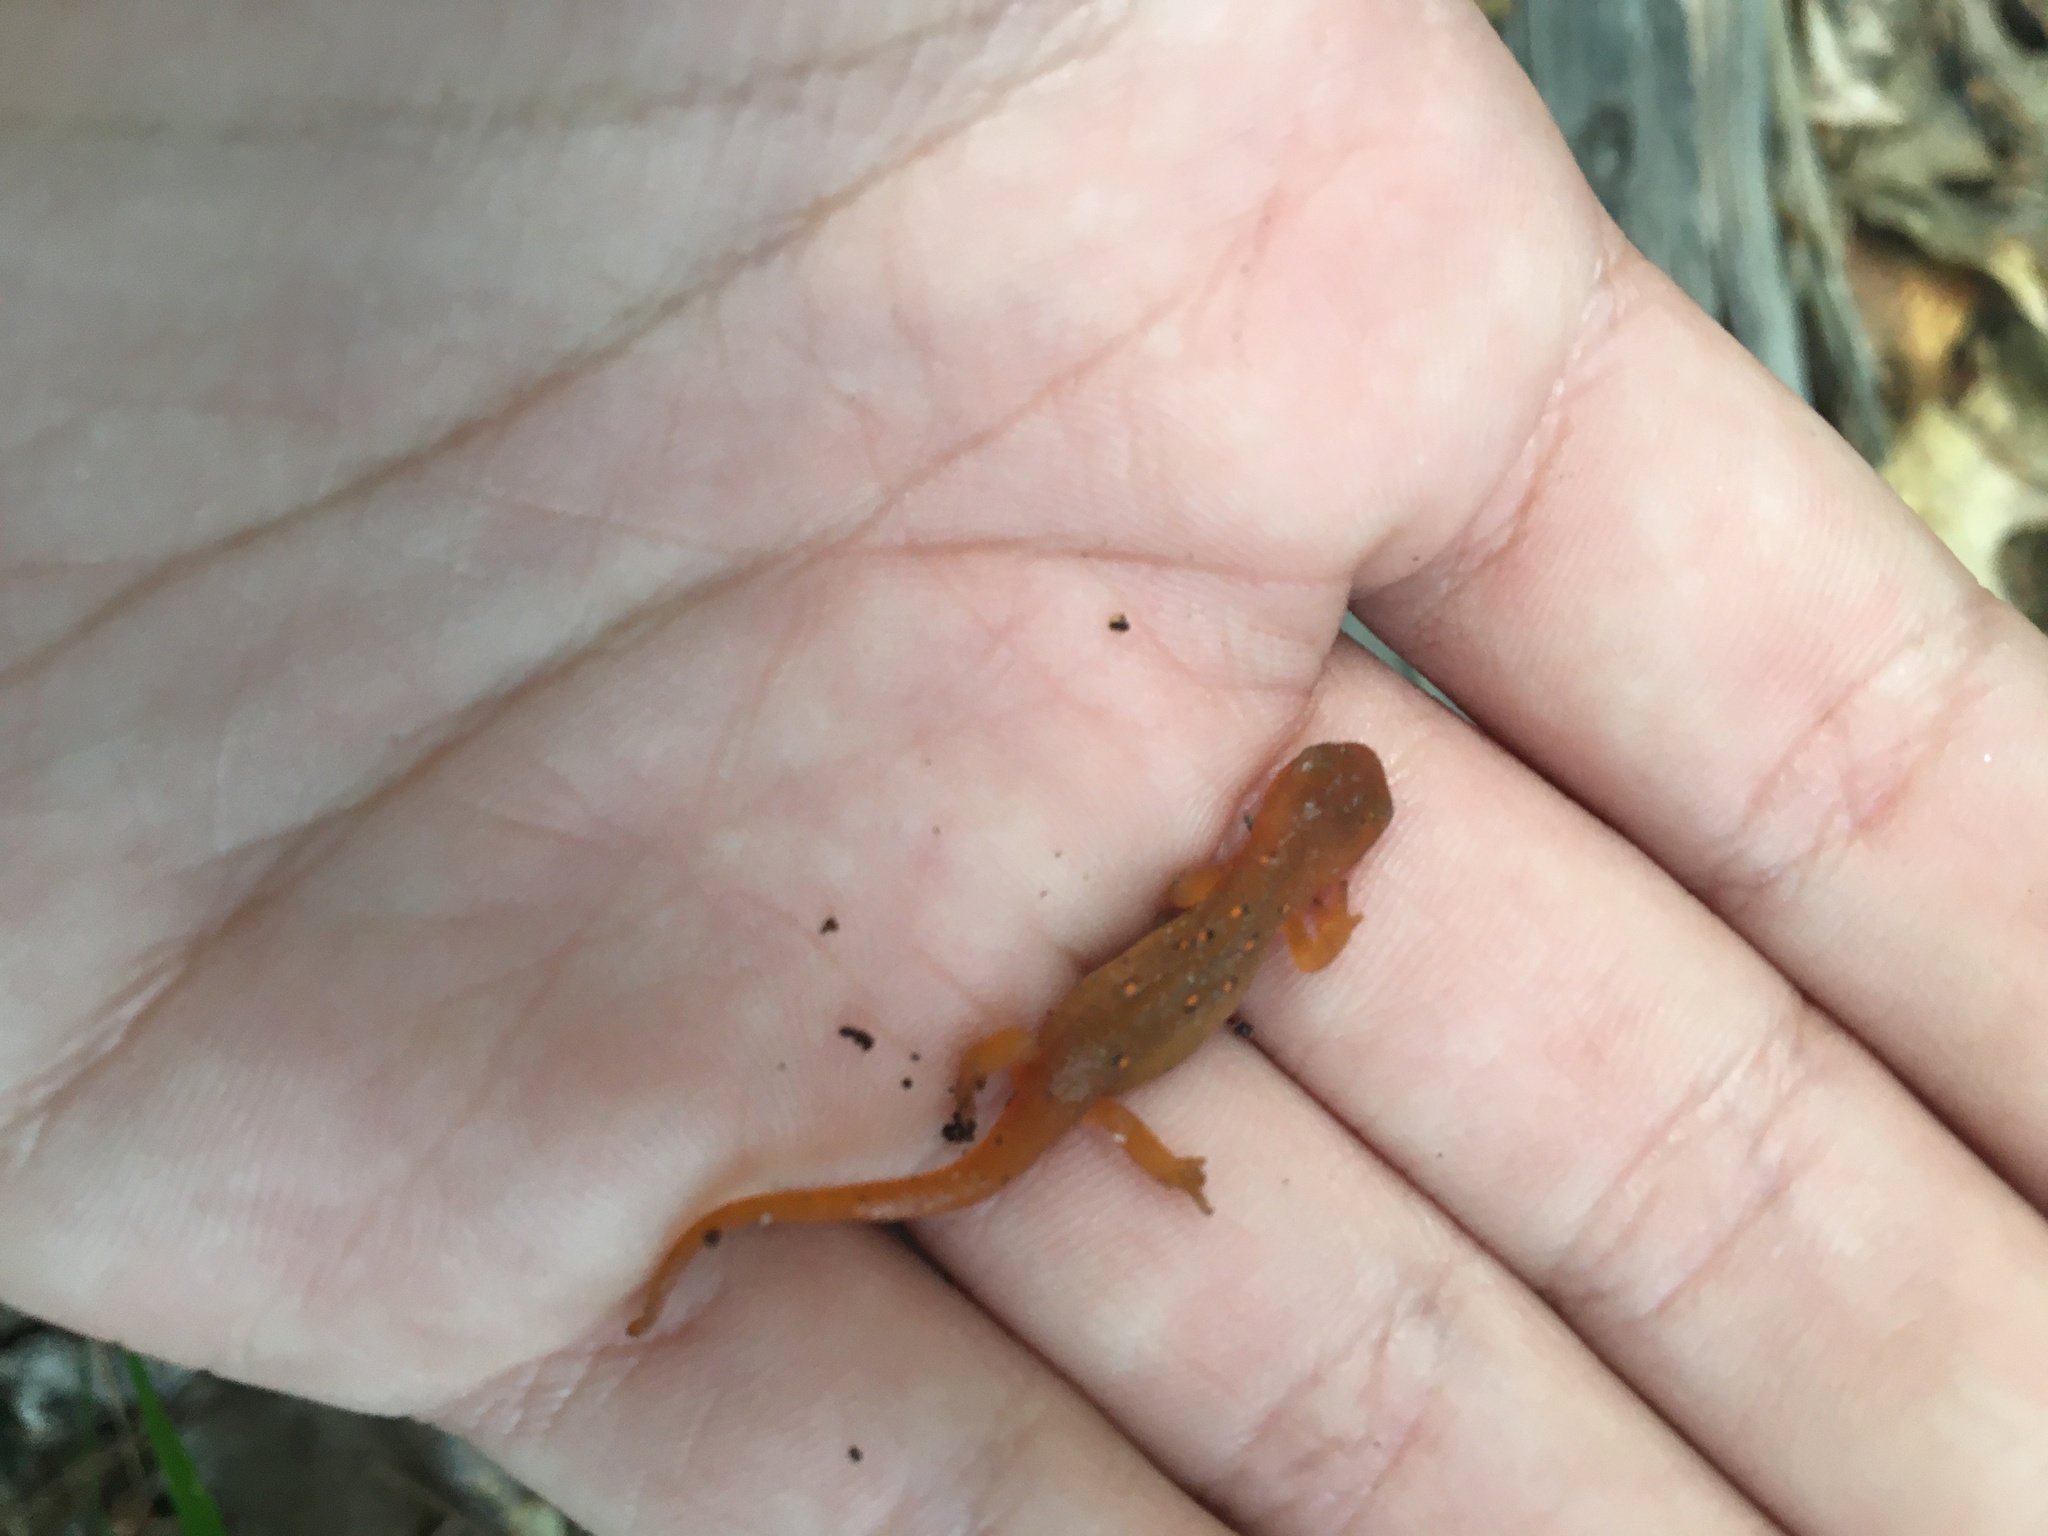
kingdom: Animalia
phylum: Chordata
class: Amphibia
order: Caudata
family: Salamandridae
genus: Notophthalmus
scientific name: Notophthalmus viridescens
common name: Eastern newt
